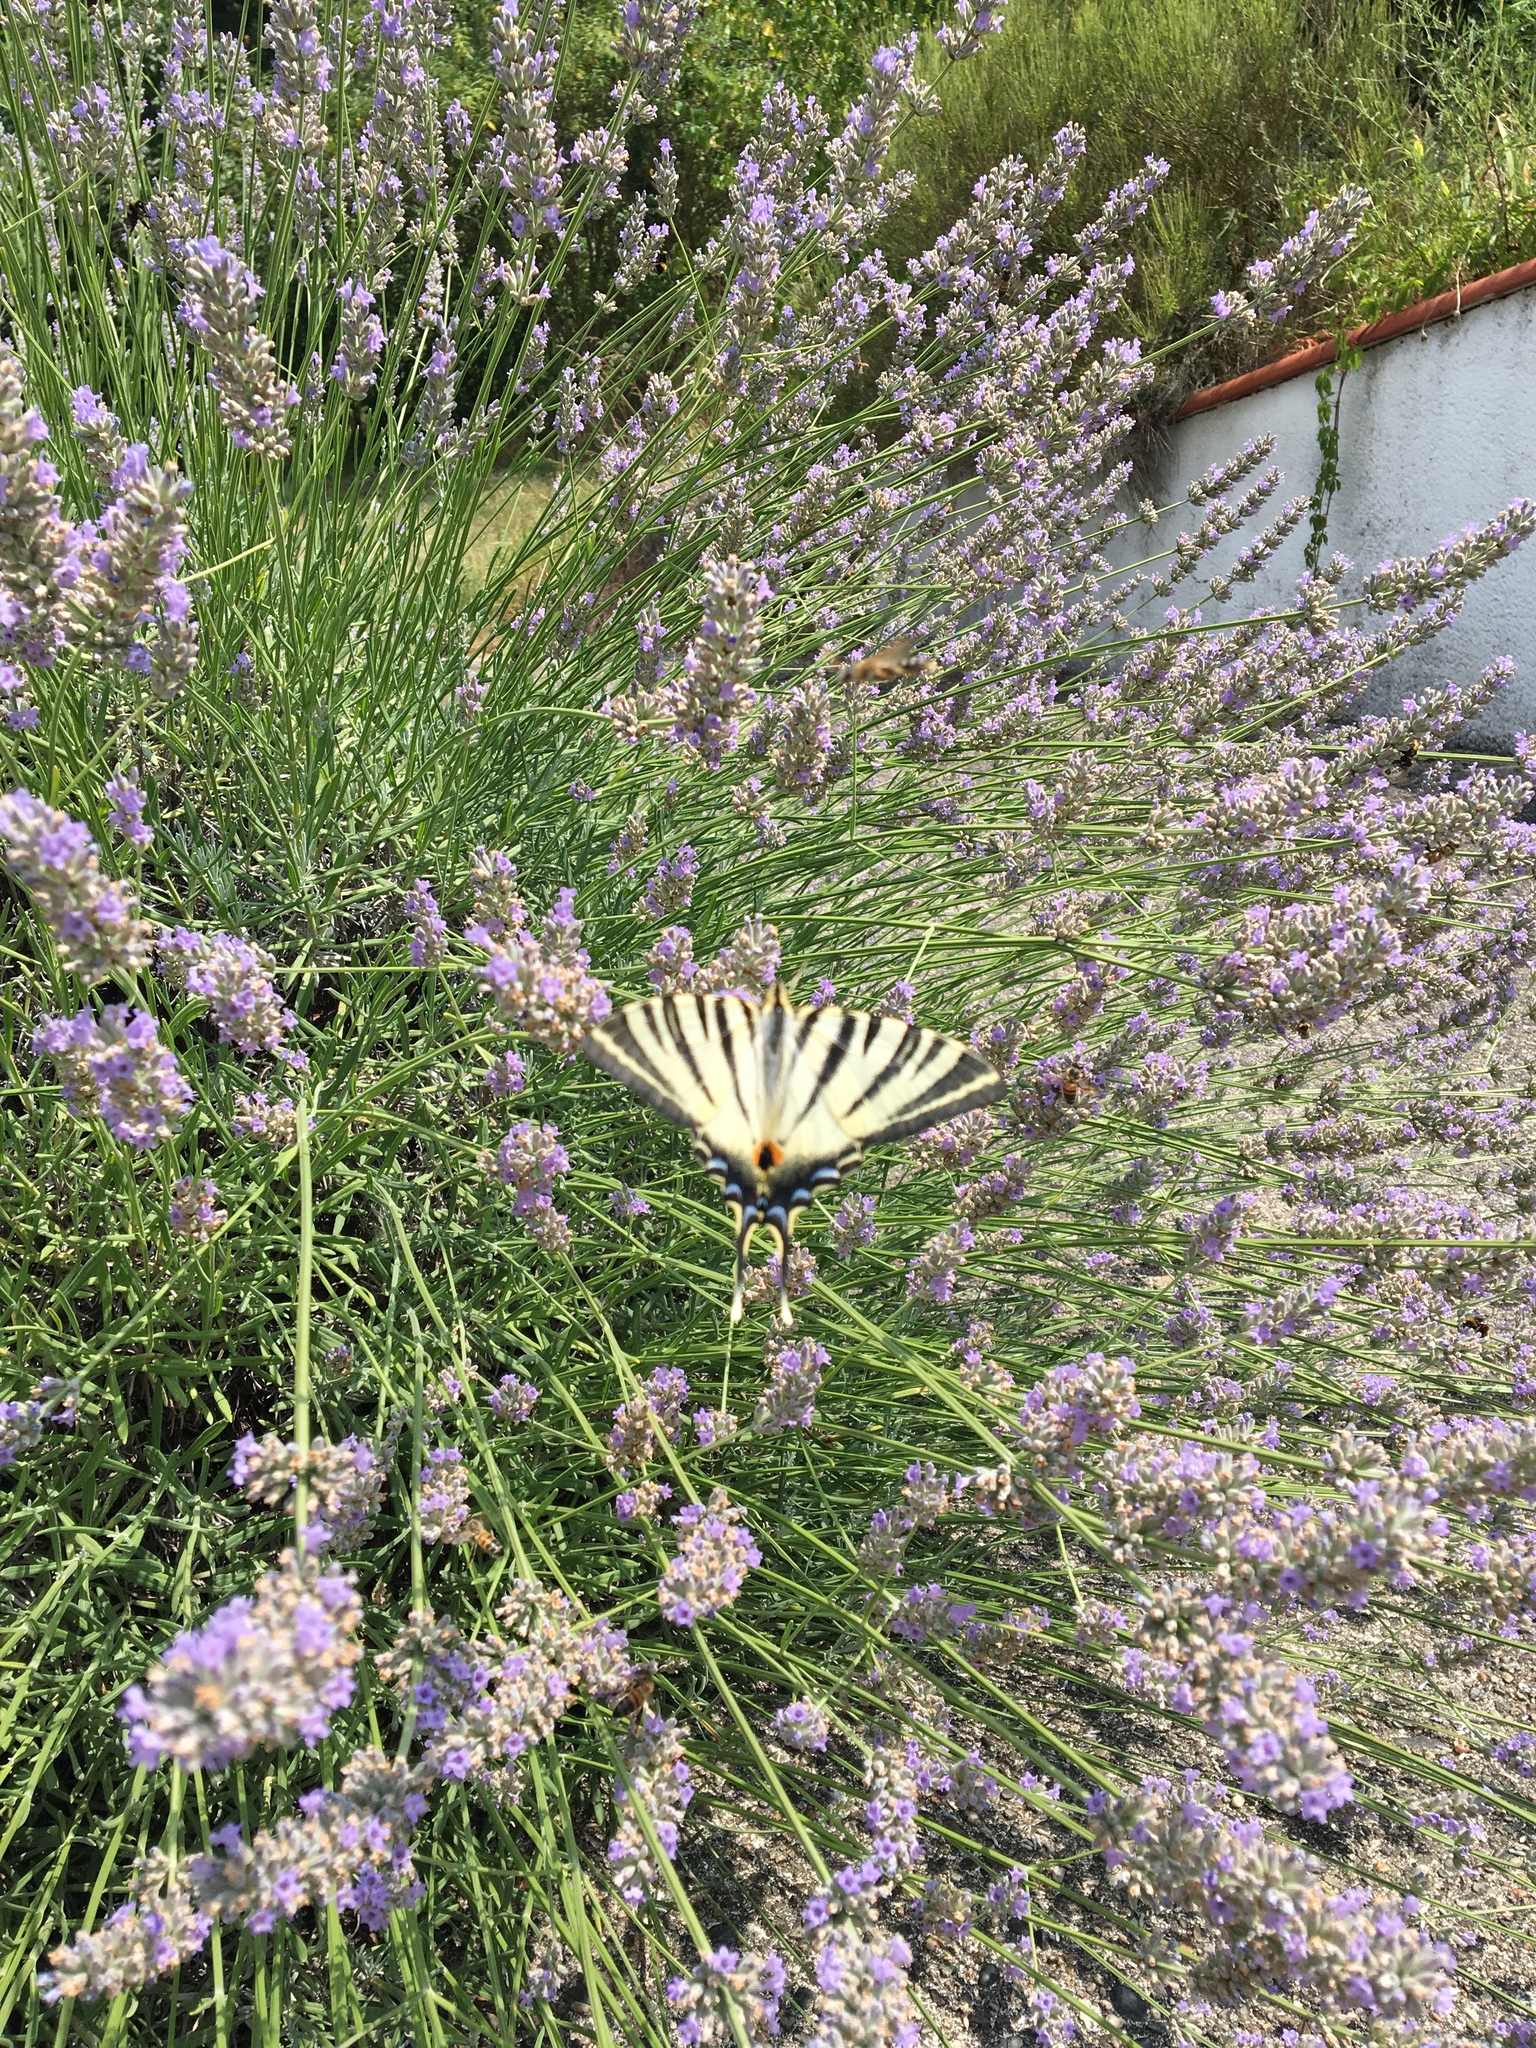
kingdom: Animalia
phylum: Arthropoda
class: Insecta
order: Lepidoptera
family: Papilionidae
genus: Iphiclides
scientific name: Iphiclides podalirius
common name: Scarce swallowtail
